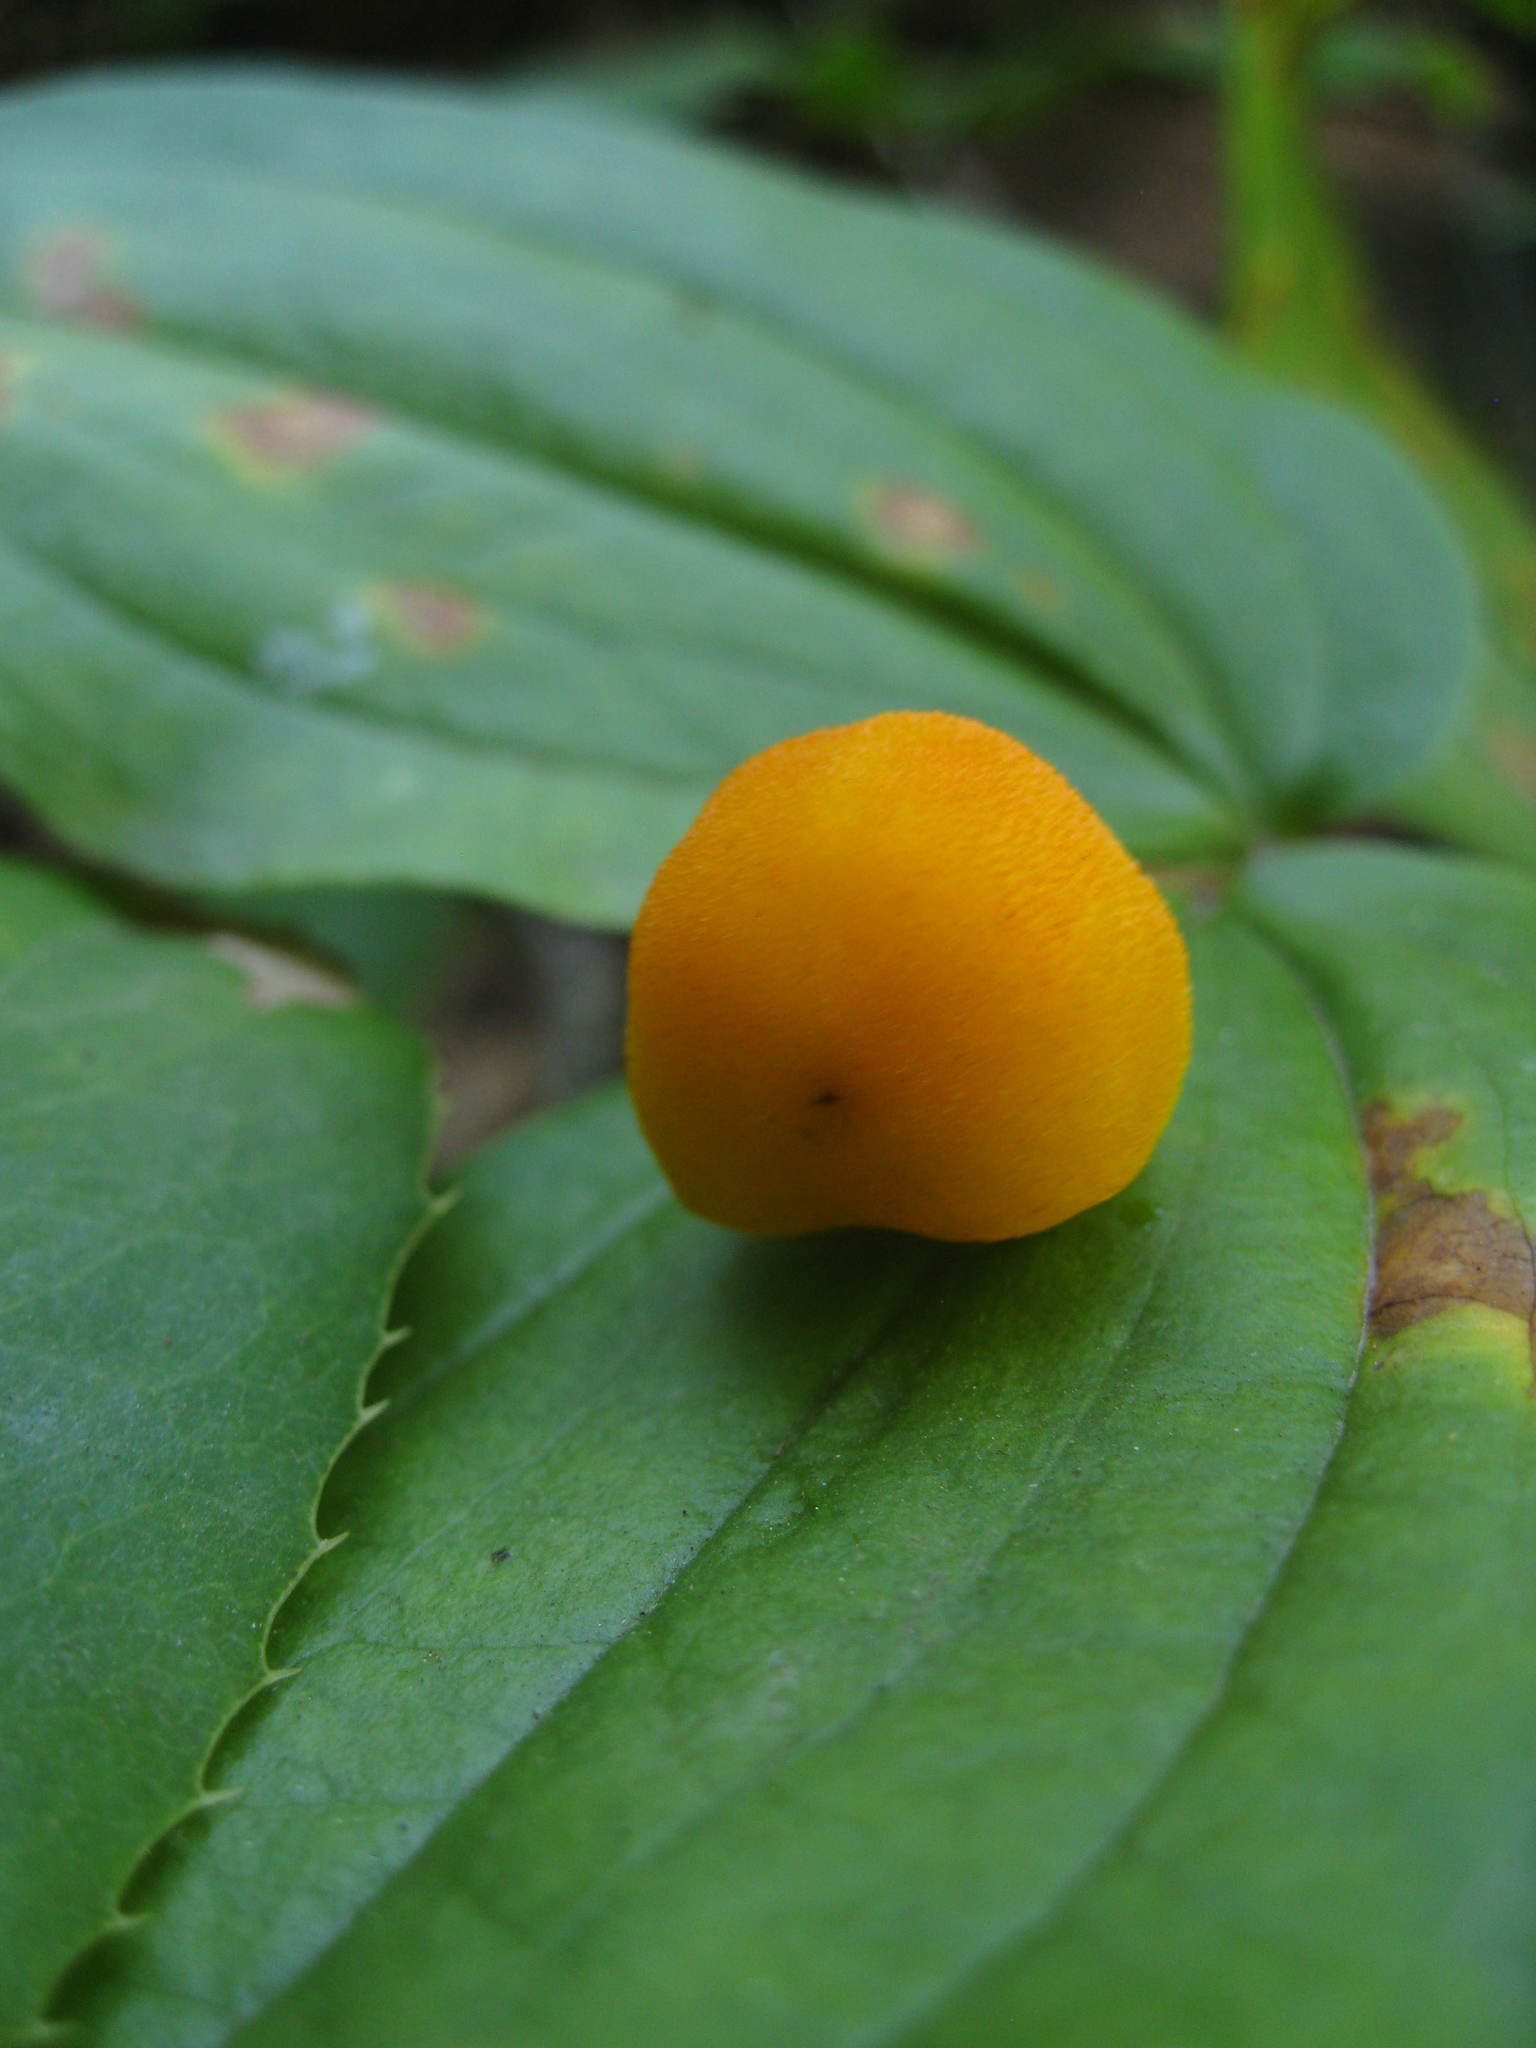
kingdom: Plantae
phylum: Tracheophyta
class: Liliopsida
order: Liliales
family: Liliaceae
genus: Prosartes
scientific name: Prosartes trachycarpa
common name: Rough-fruit fairy-bells
